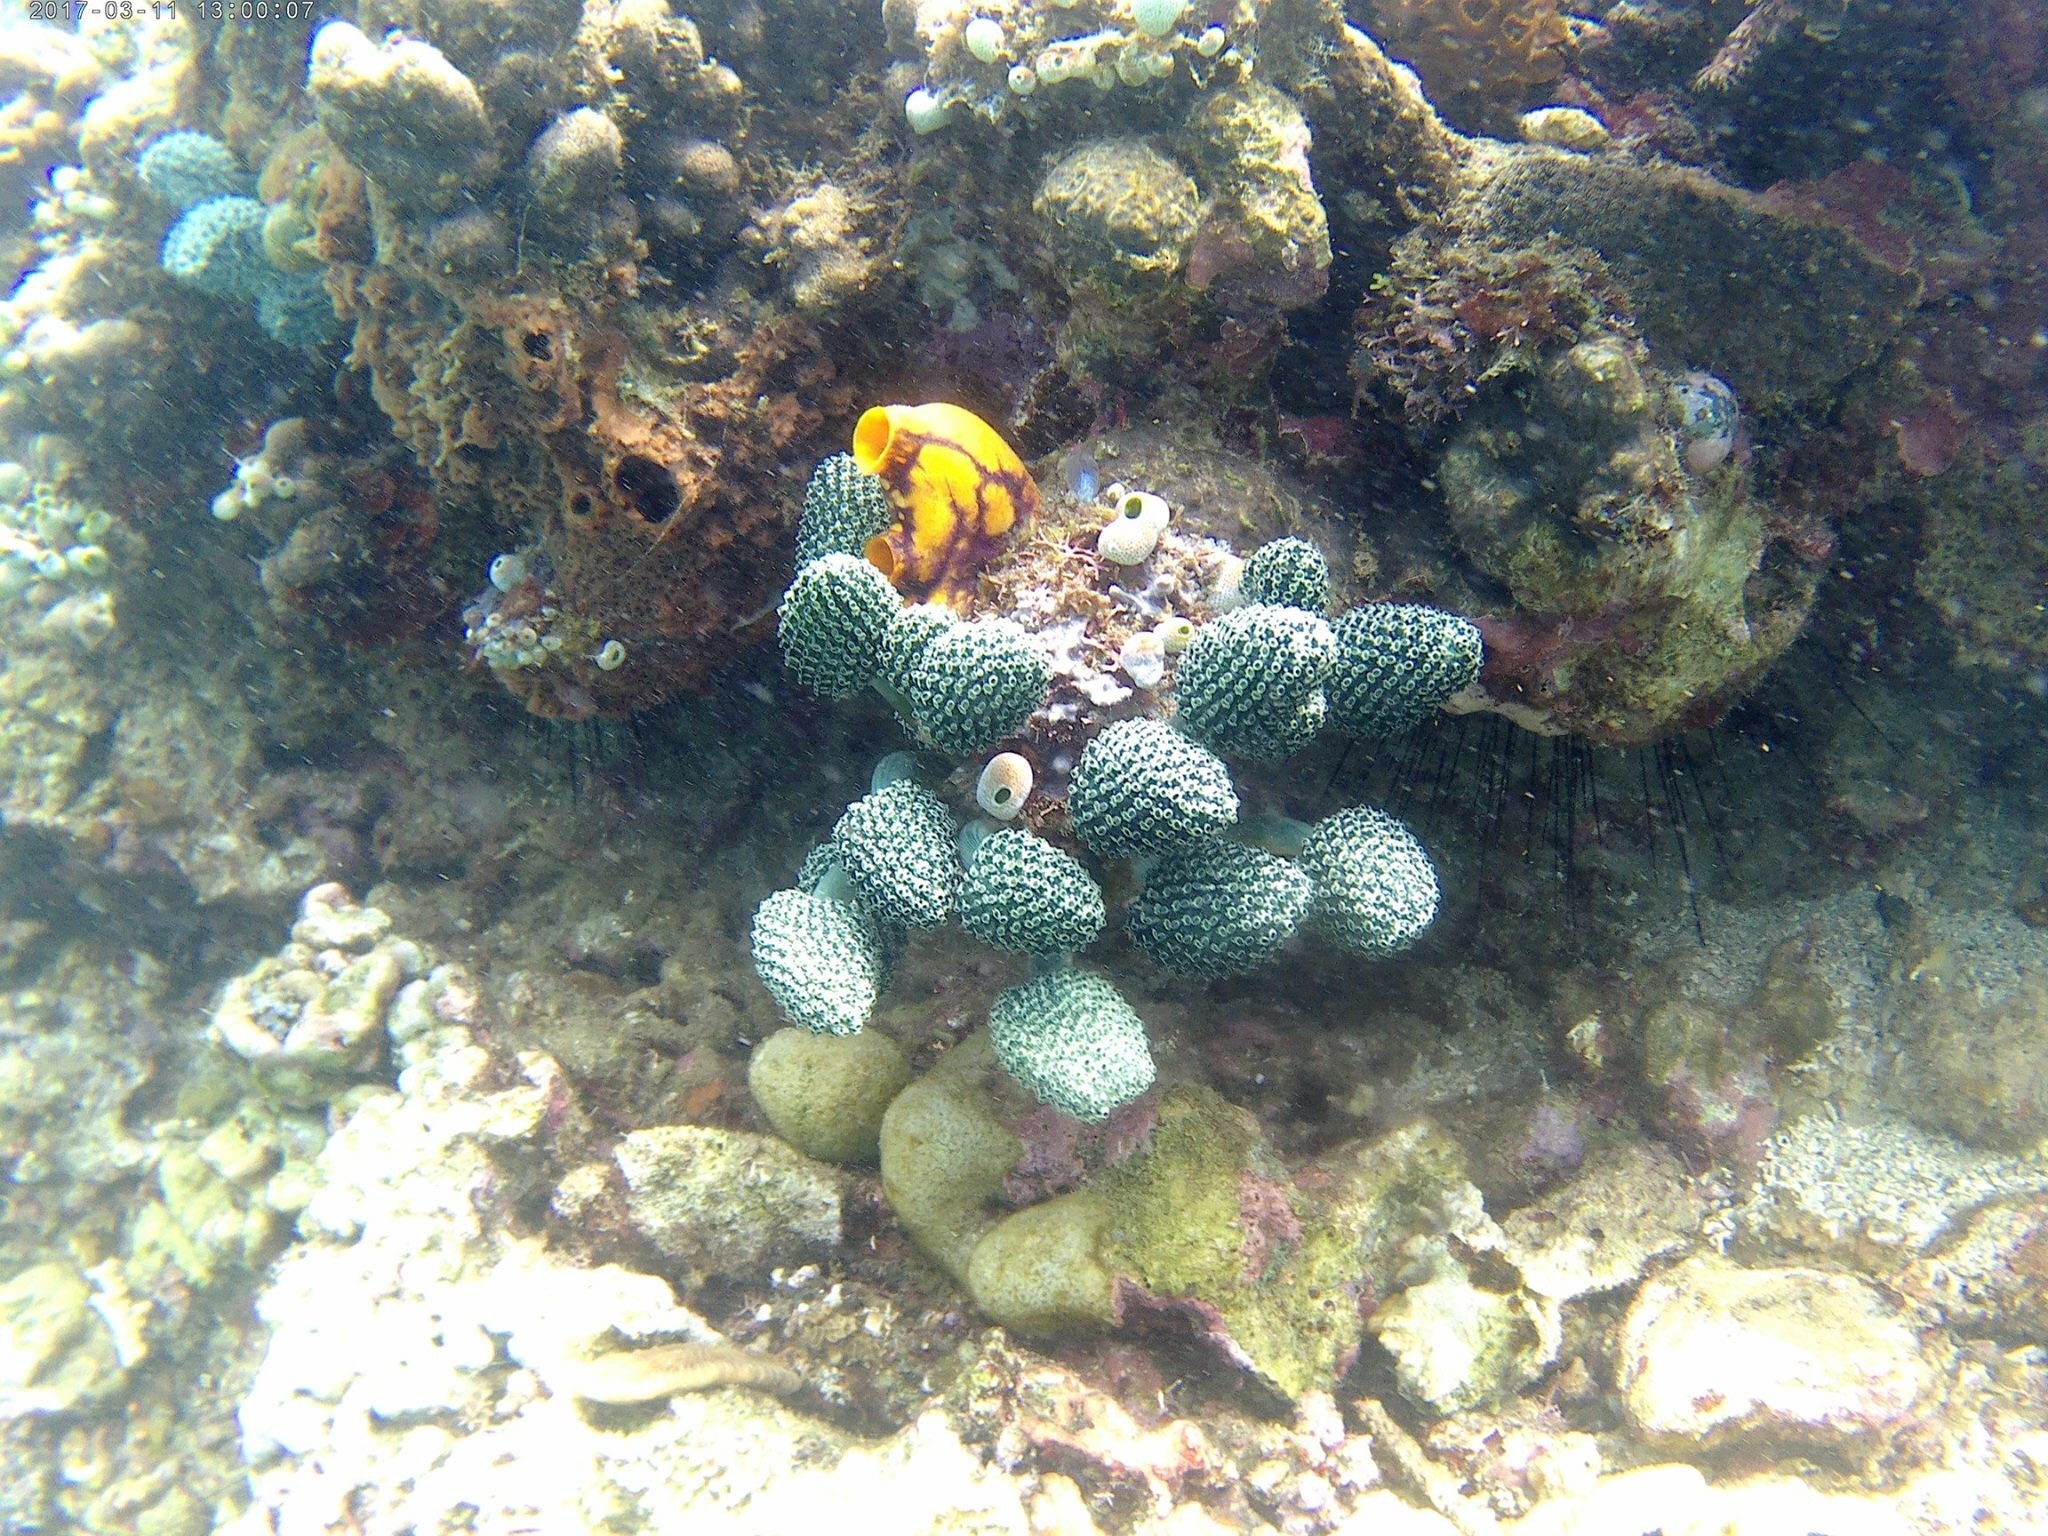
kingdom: Animalia
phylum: Chordata
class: Ascidiacea
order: Stolidobranchia
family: Styelidae
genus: Polycarpa
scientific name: Polycarpa aurata
